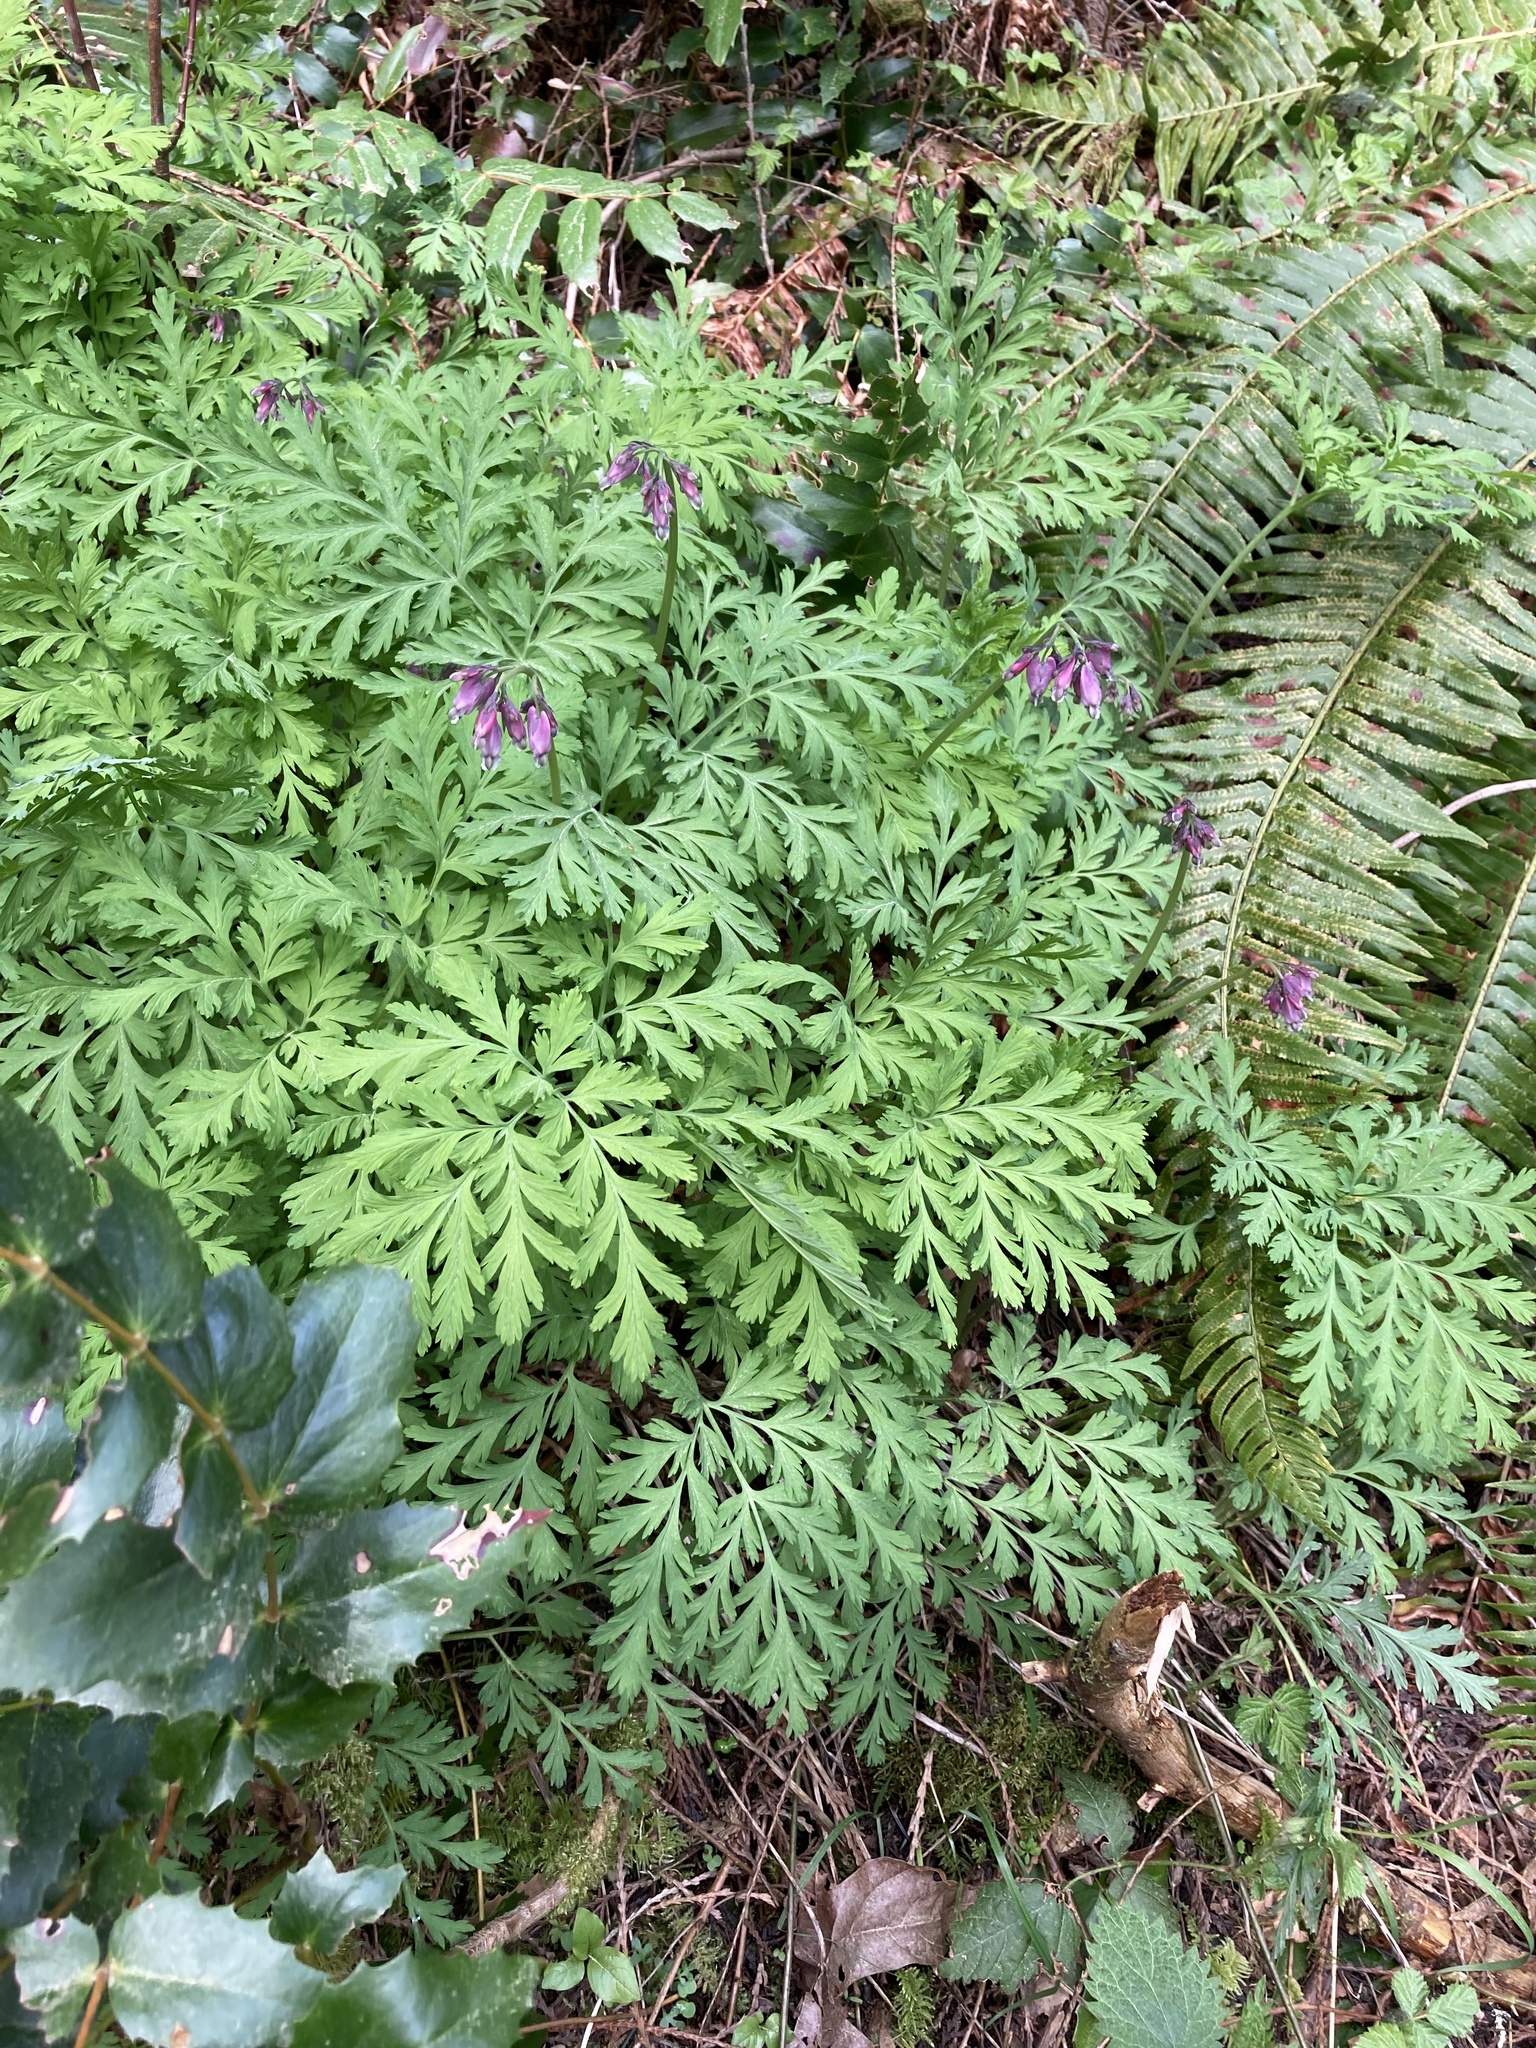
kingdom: Plantae
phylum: Tracheophyta
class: Magnoliopsida
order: Ranunculales
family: Papaveraceae
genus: Dicentra
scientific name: Dicentra formosa
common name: Bleeding-heart
